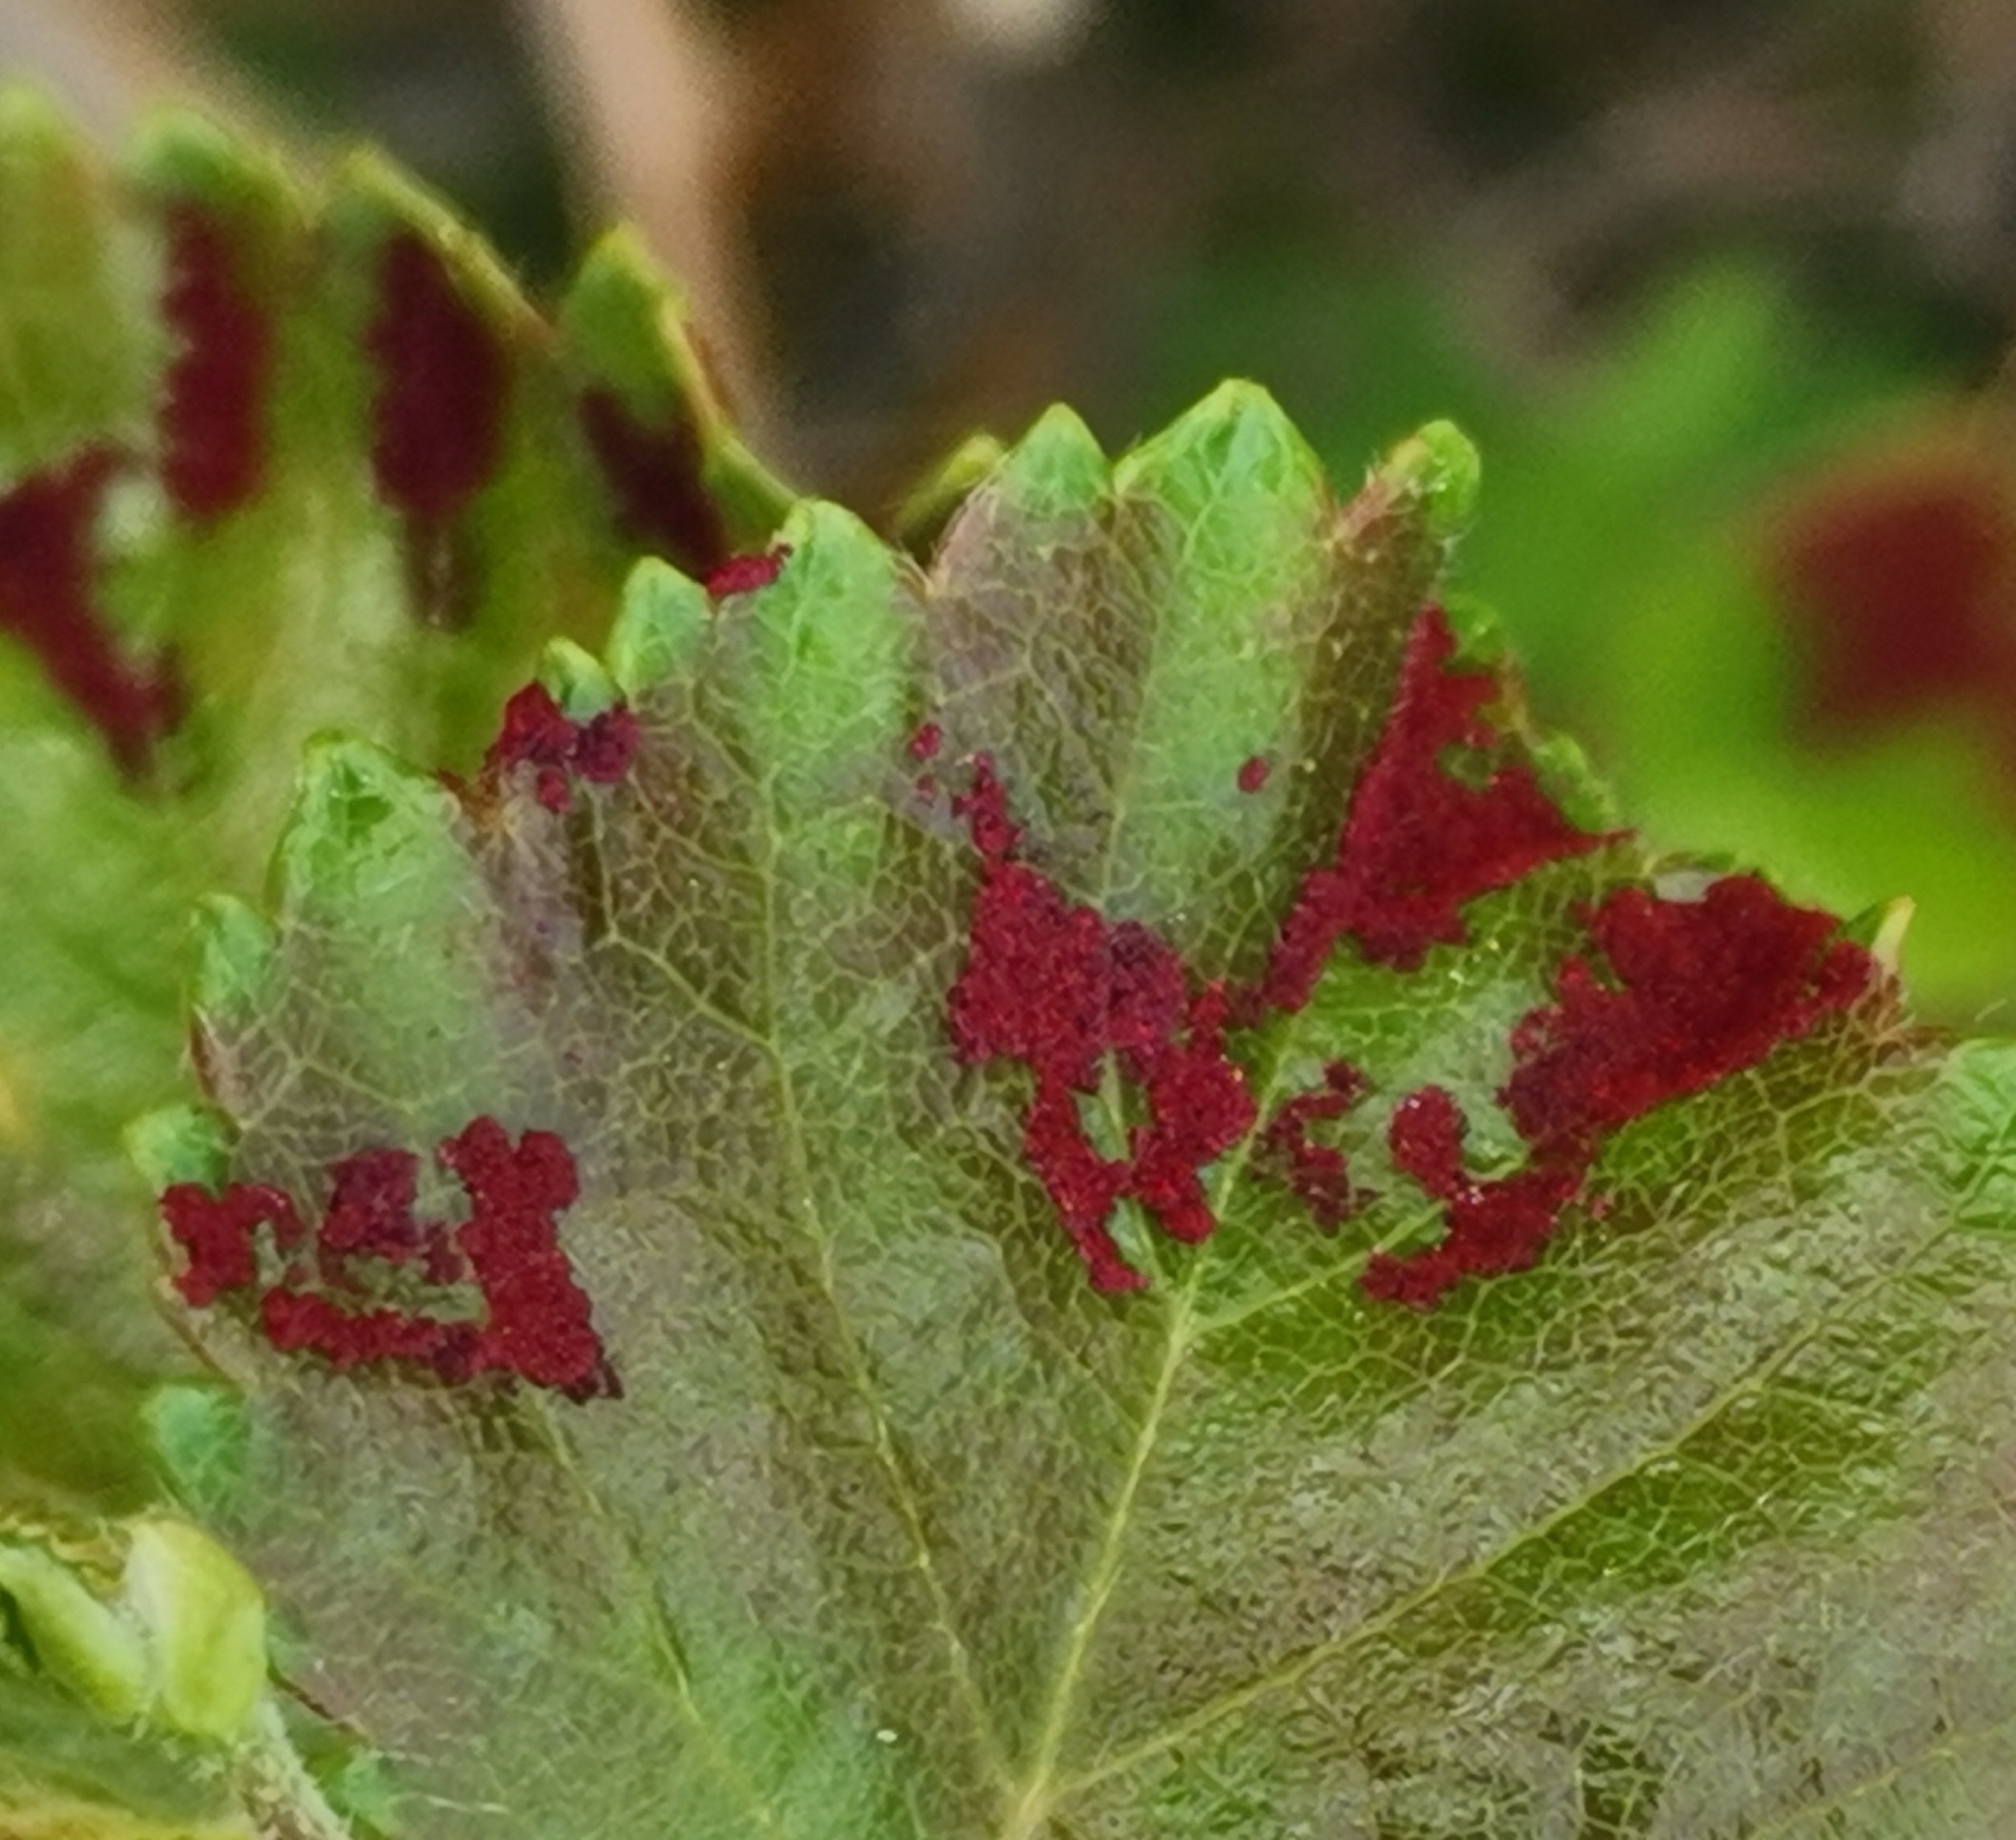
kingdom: Animalia
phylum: Arthropoda
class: Arachnida
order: Trombidiformes
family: Eriophyidae
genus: Acalitus
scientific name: Acalitus longisetosus
